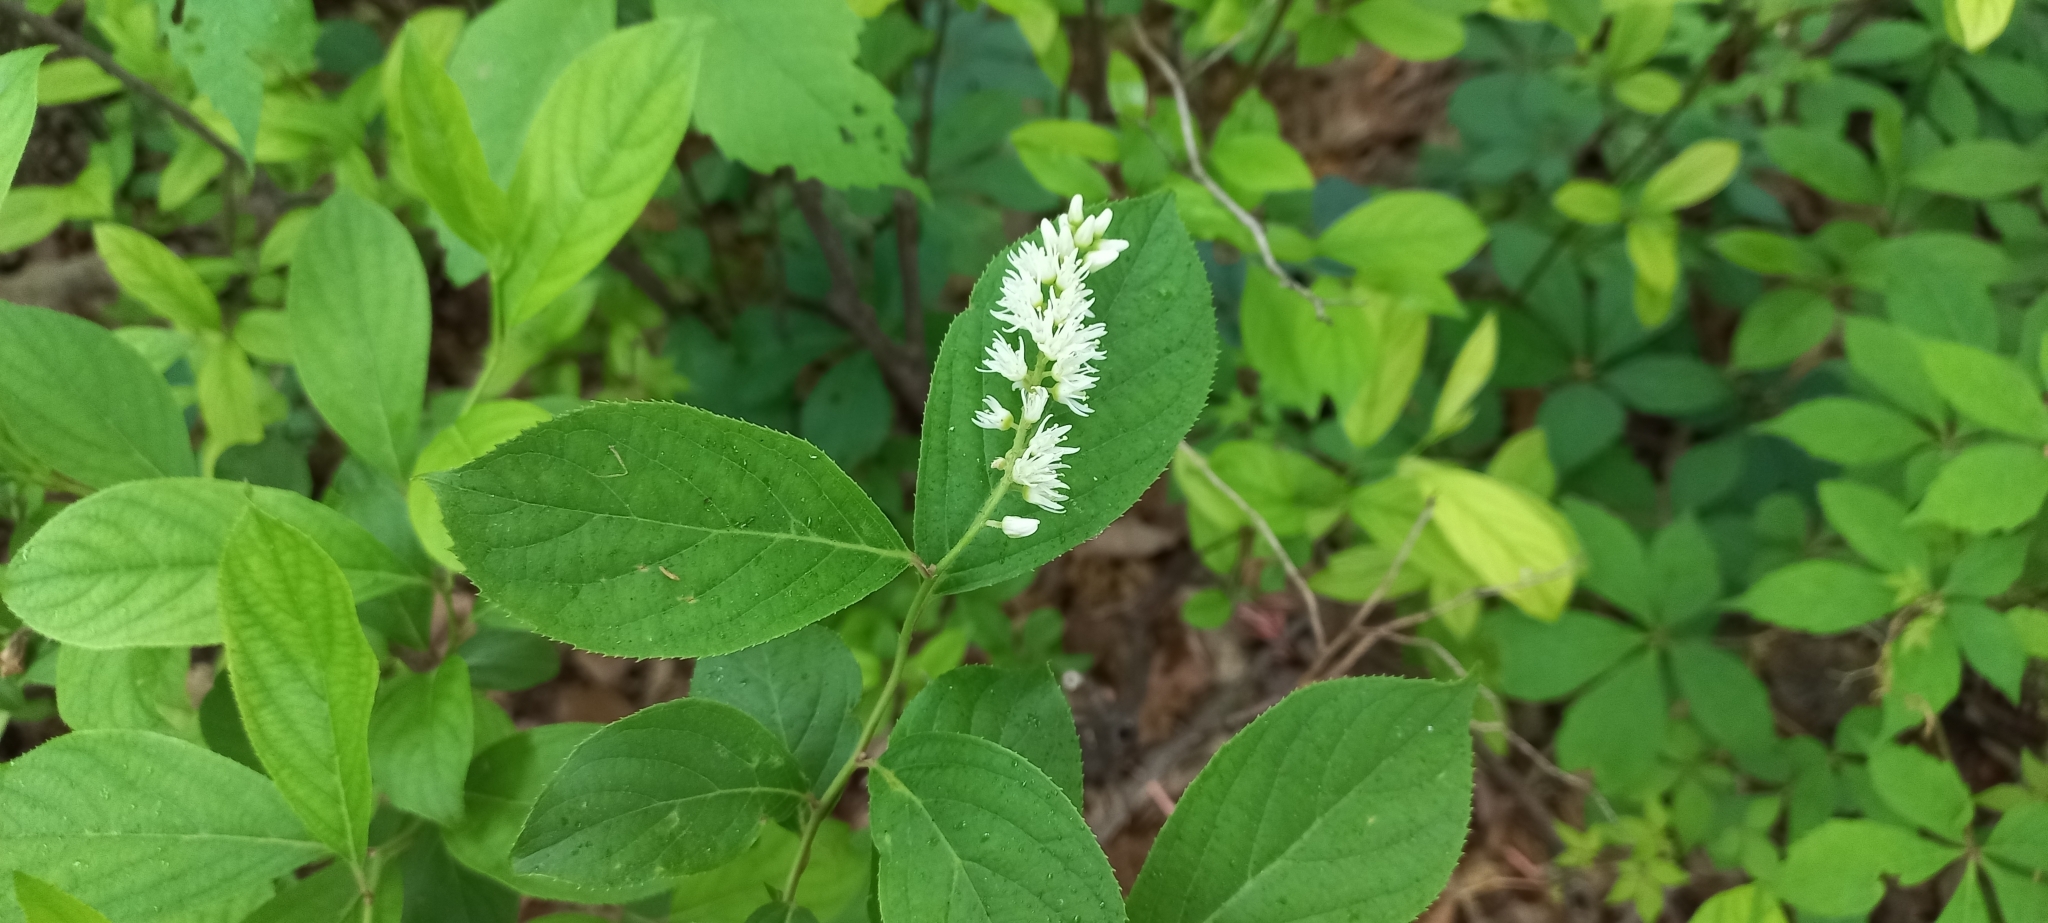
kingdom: Plantae
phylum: Tracheophyta
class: Magnoliopsida
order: Saxifragales
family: Iteaceae
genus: Itea
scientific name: Itea virginica
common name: Sweetspire
